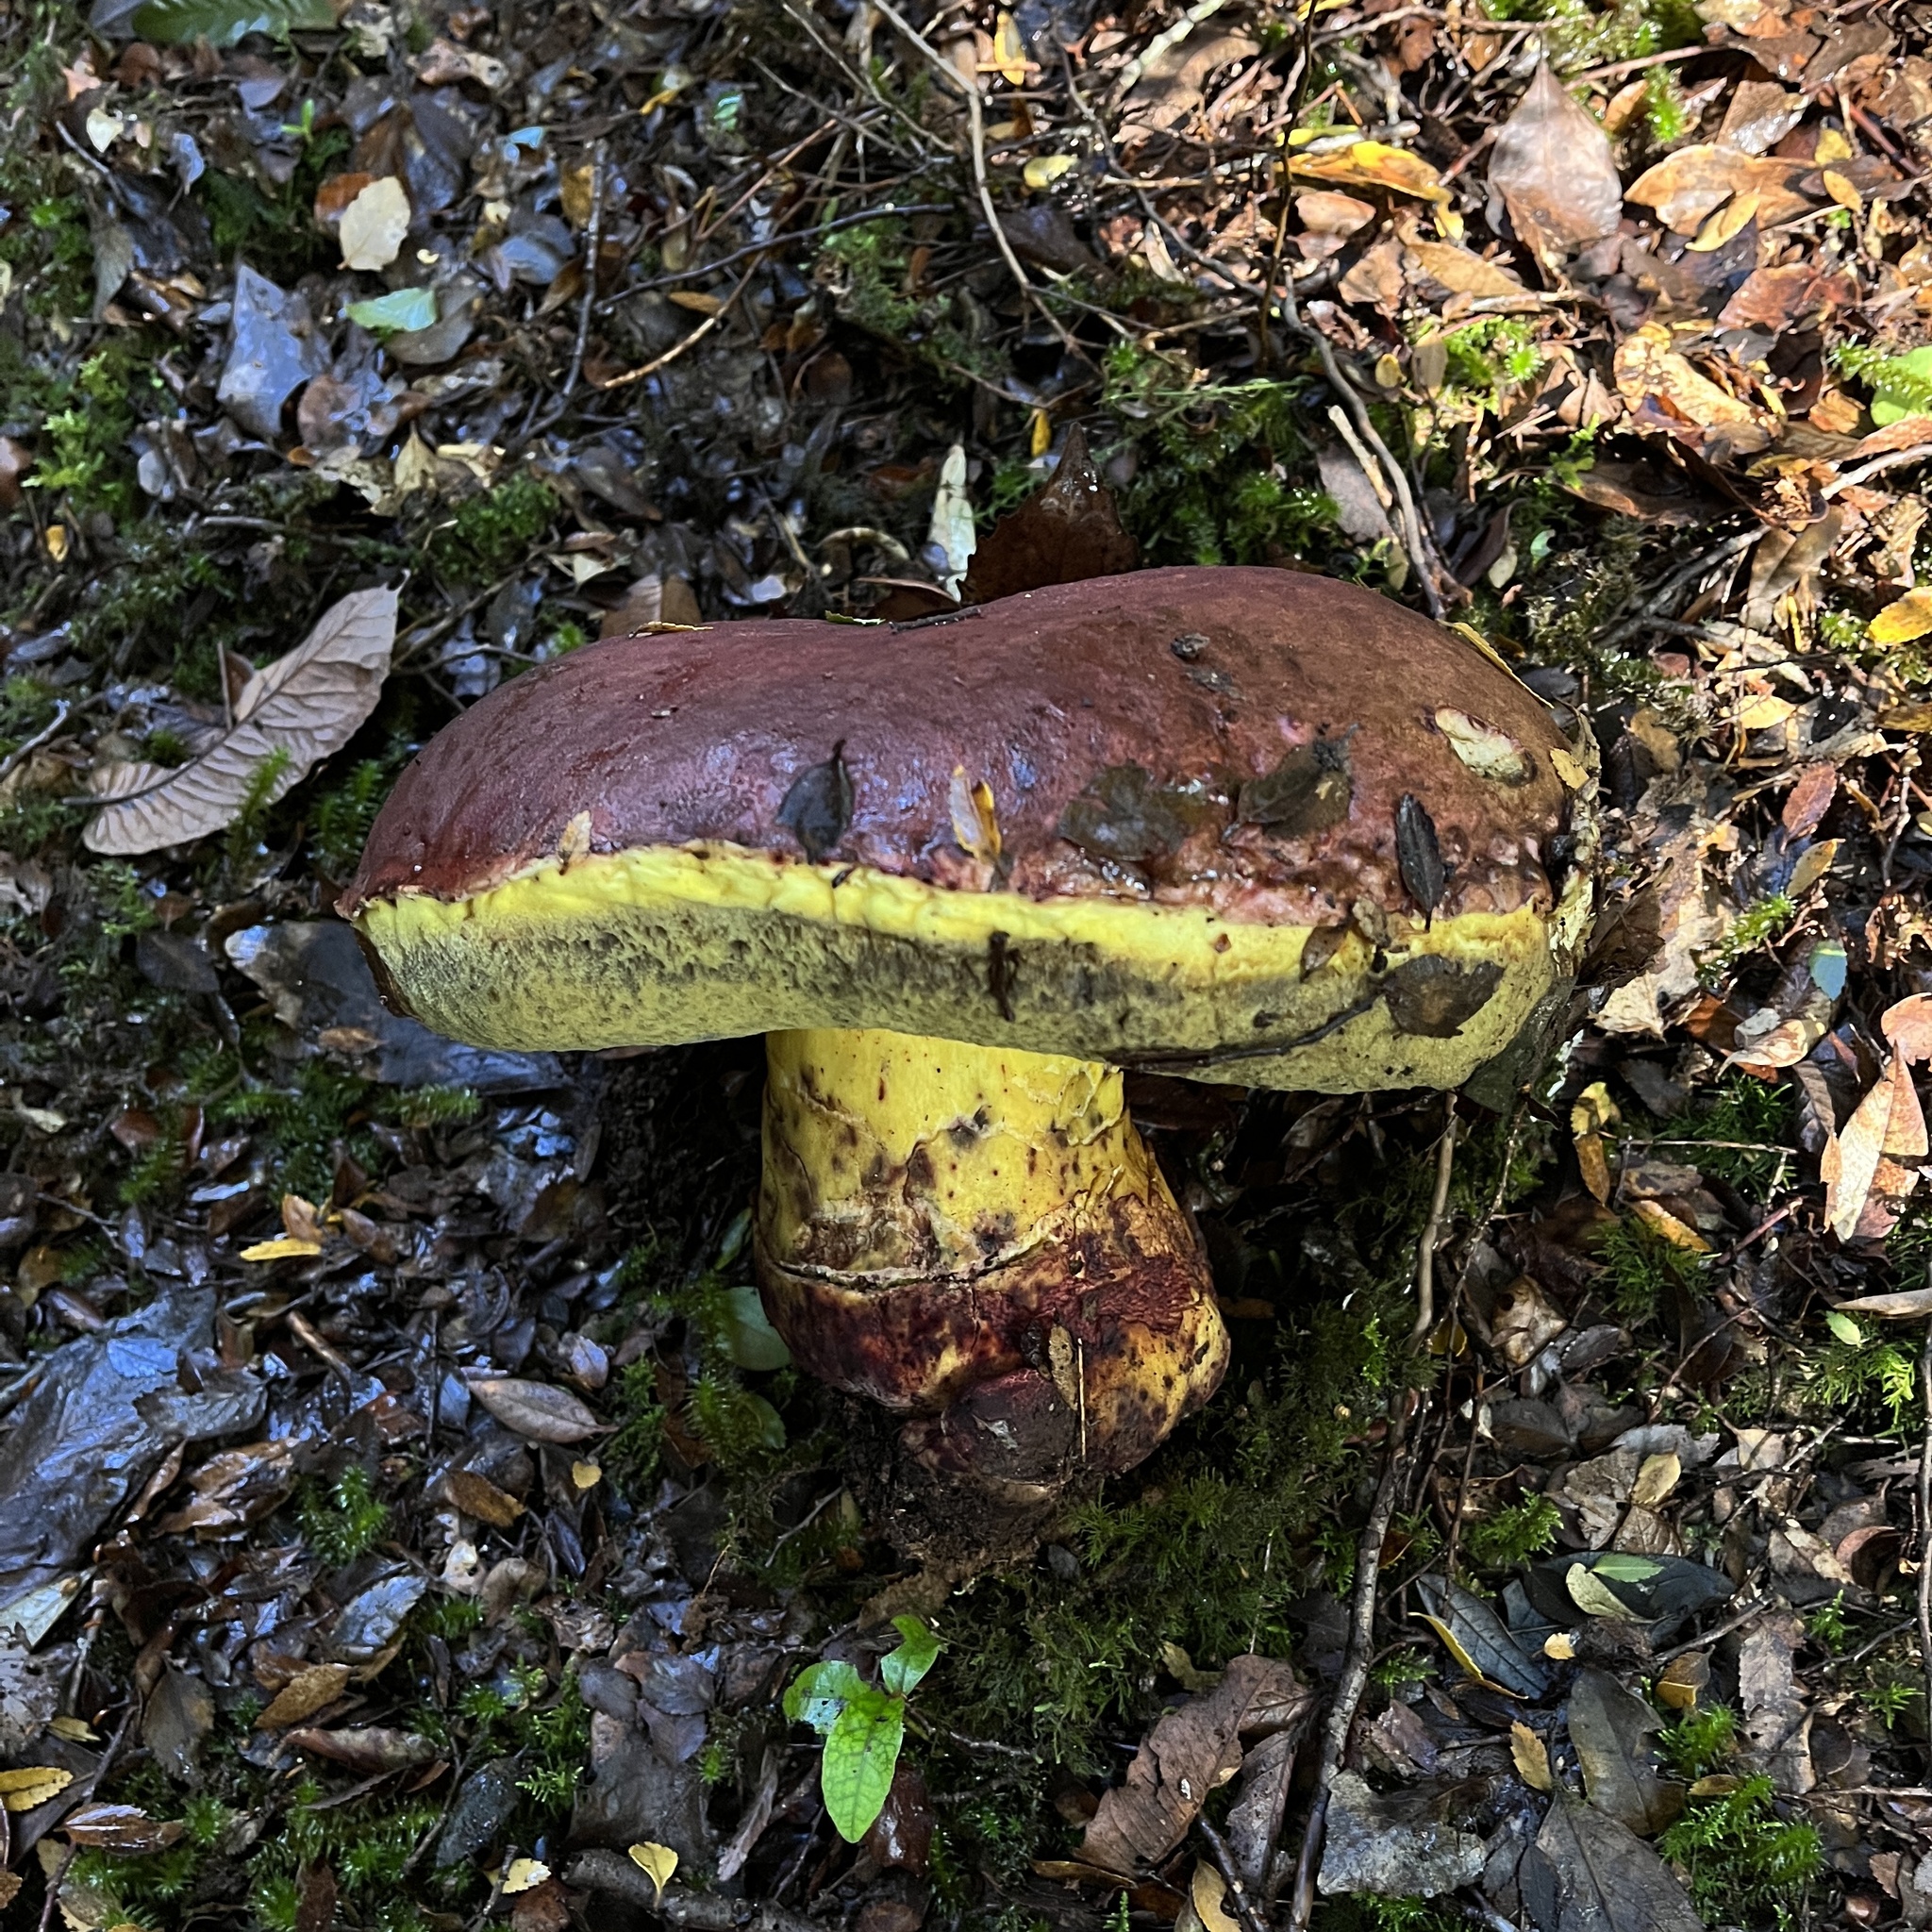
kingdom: Fungi
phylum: Basidiomycota
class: Agaricomycetes
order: Boletales
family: Boletaceae
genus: Butyriboletus
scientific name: Butyriboletus loyo
